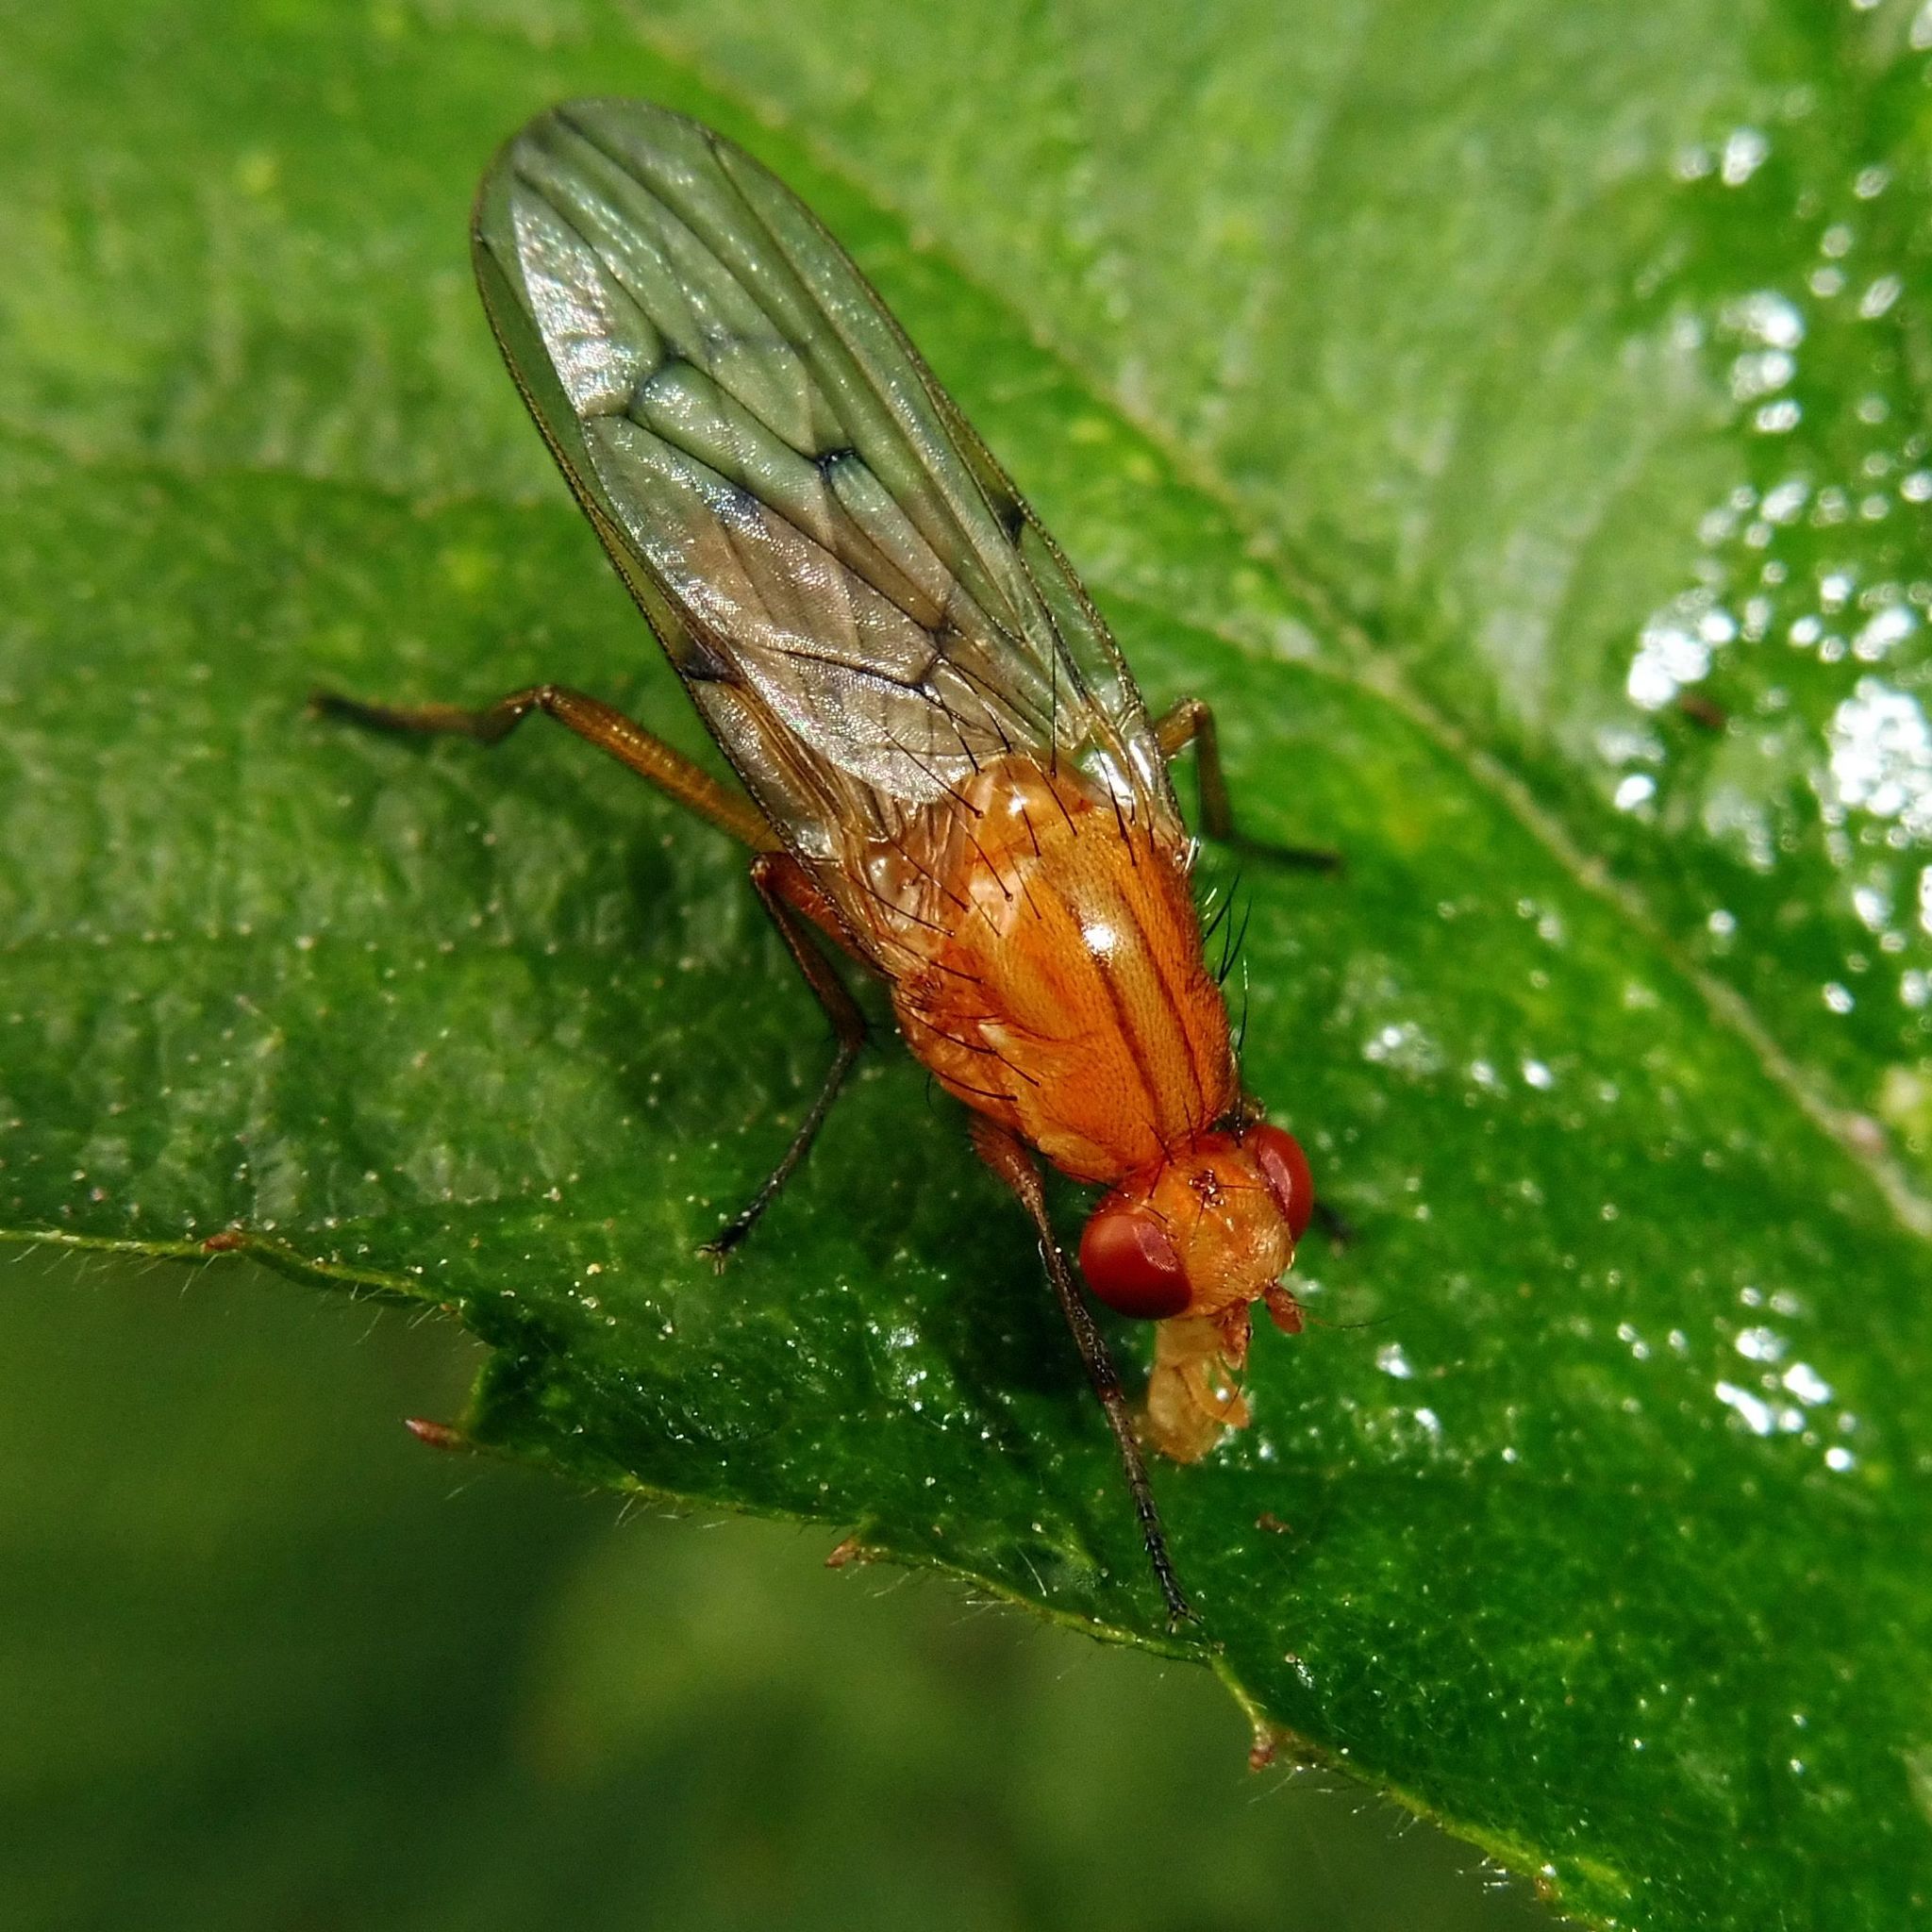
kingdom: Animalia
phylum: Arthropoda
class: Insecta
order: Diptera
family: Dryomyzidae
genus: Dryomyza
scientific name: Dryomyza anilis
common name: Marsh fly
